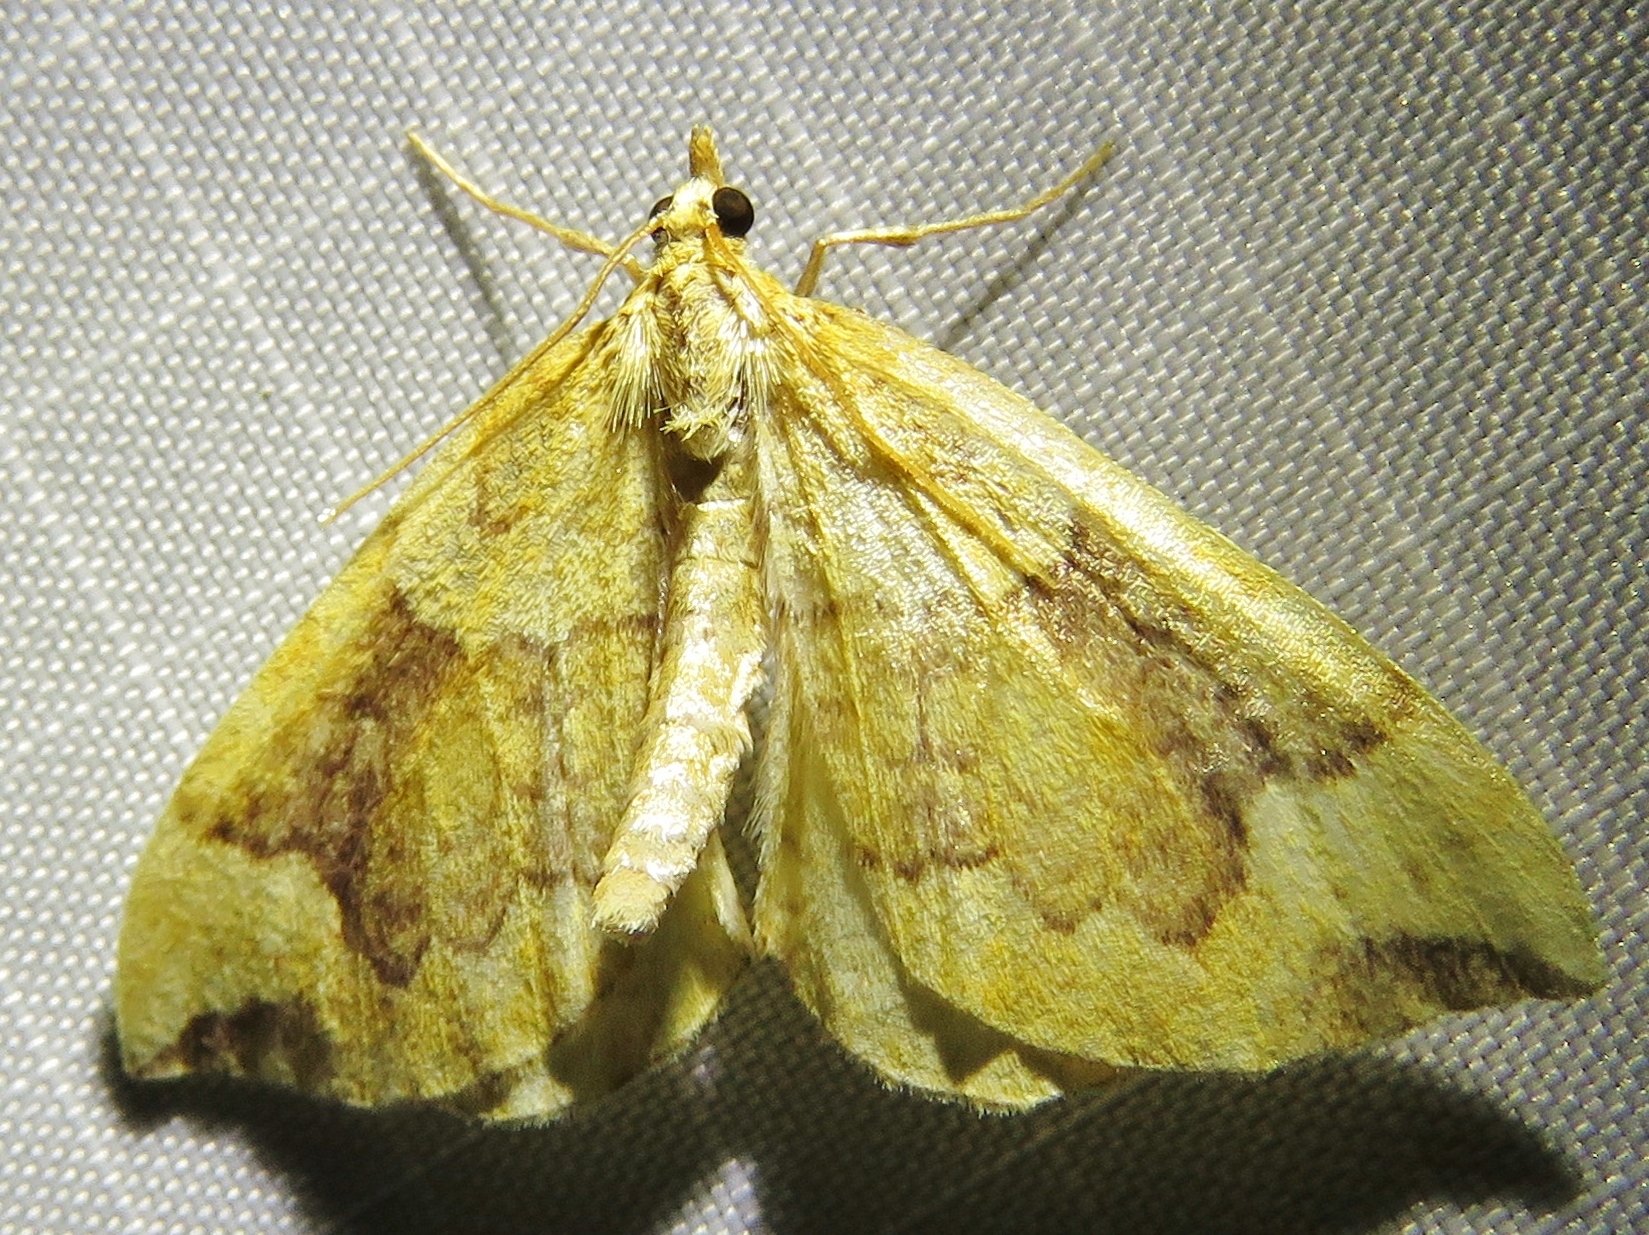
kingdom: Animalia
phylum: Arthropoda
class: Insecta
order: Lepidoptera
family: Geometridae
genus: Eulithis
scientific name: Eulithis populata
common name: Northern spinach
